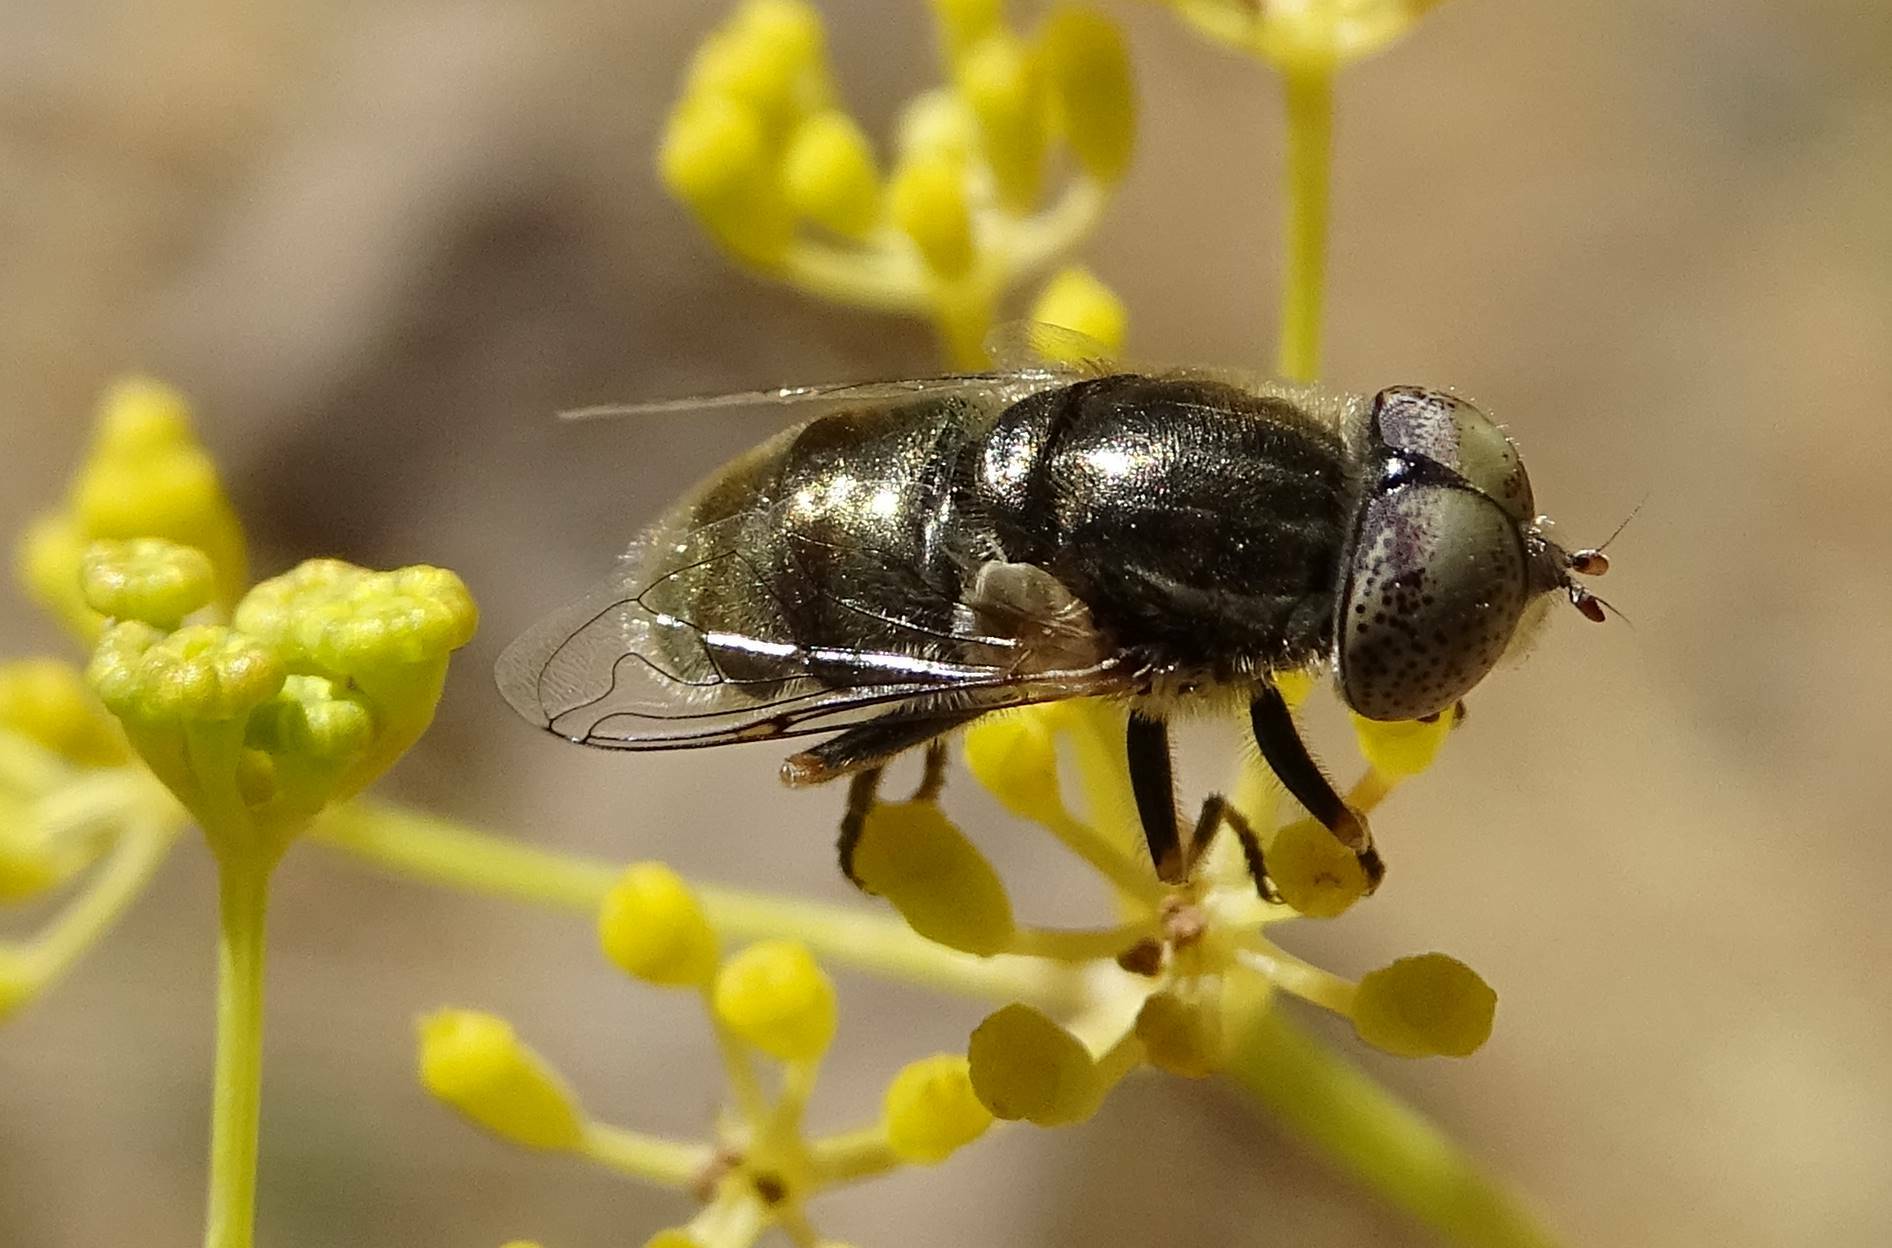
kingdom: Animalia
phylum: Arthropoda
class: Insecta
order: Diptera
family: Syrphidae
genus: Eristalinus
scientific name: Eristalinus aeneus
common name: Syrphid fly
